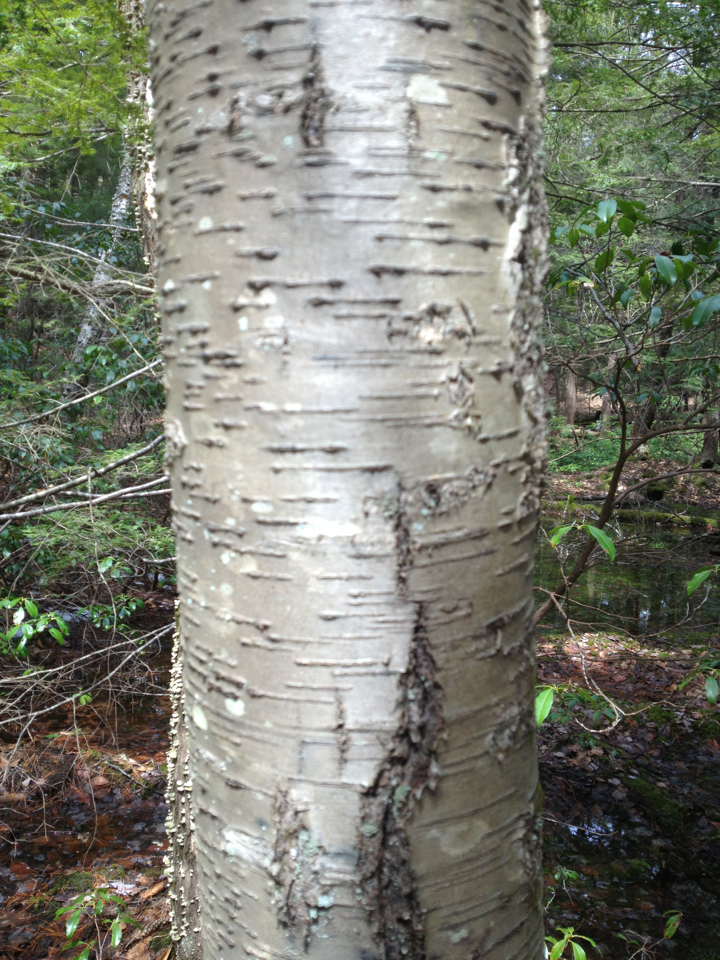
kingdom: Plantae
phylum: Tracheophyta
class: Magnoliopsida
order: Fagales
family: Betulaceae
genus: Betula
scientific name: Betula alleghaniensis
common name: Yellow birch
